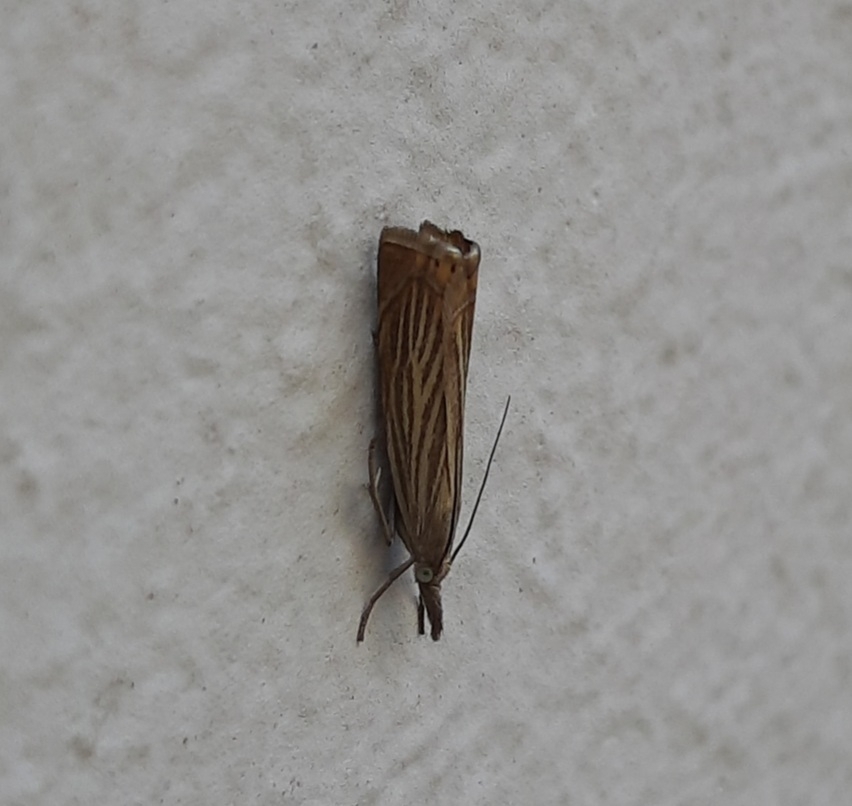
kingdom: Animalia
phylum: Arthropoda
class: Insecta
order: Lepidoptera
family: Crambidae
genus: Chrysoteuchia
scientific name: Chrysoteuchia culmella
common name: Garden grass-veneer
